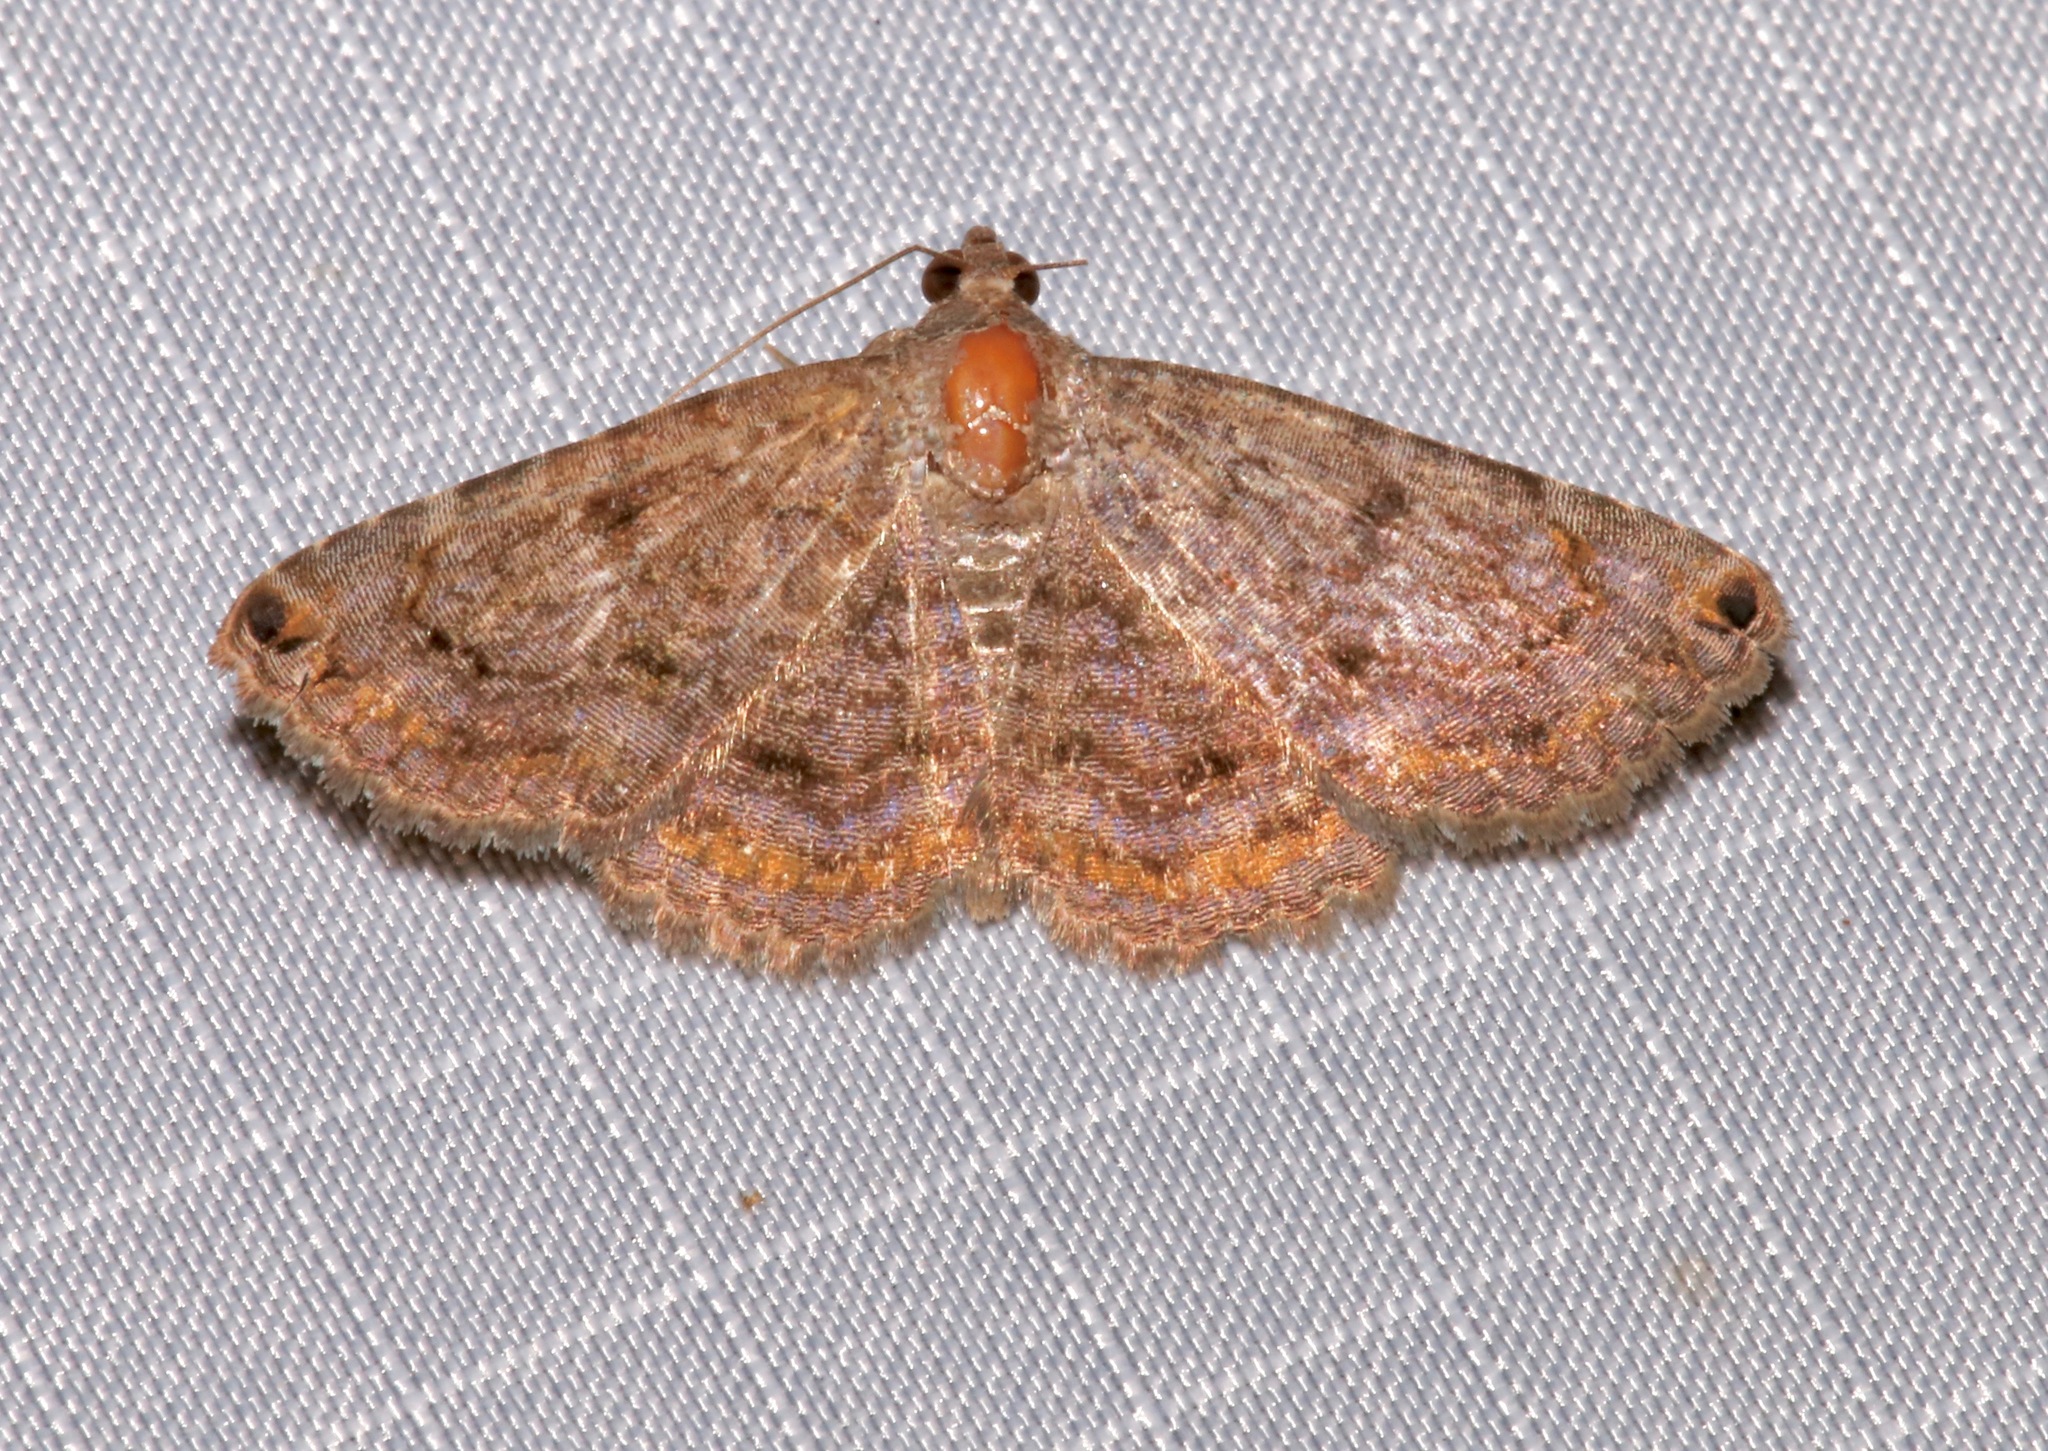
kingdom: Animalia
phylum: Arthropoda
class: Insecta
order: Lepidoptera
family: Erebidae
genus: Toxonprucha
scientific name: Toxonprucha pardalis
